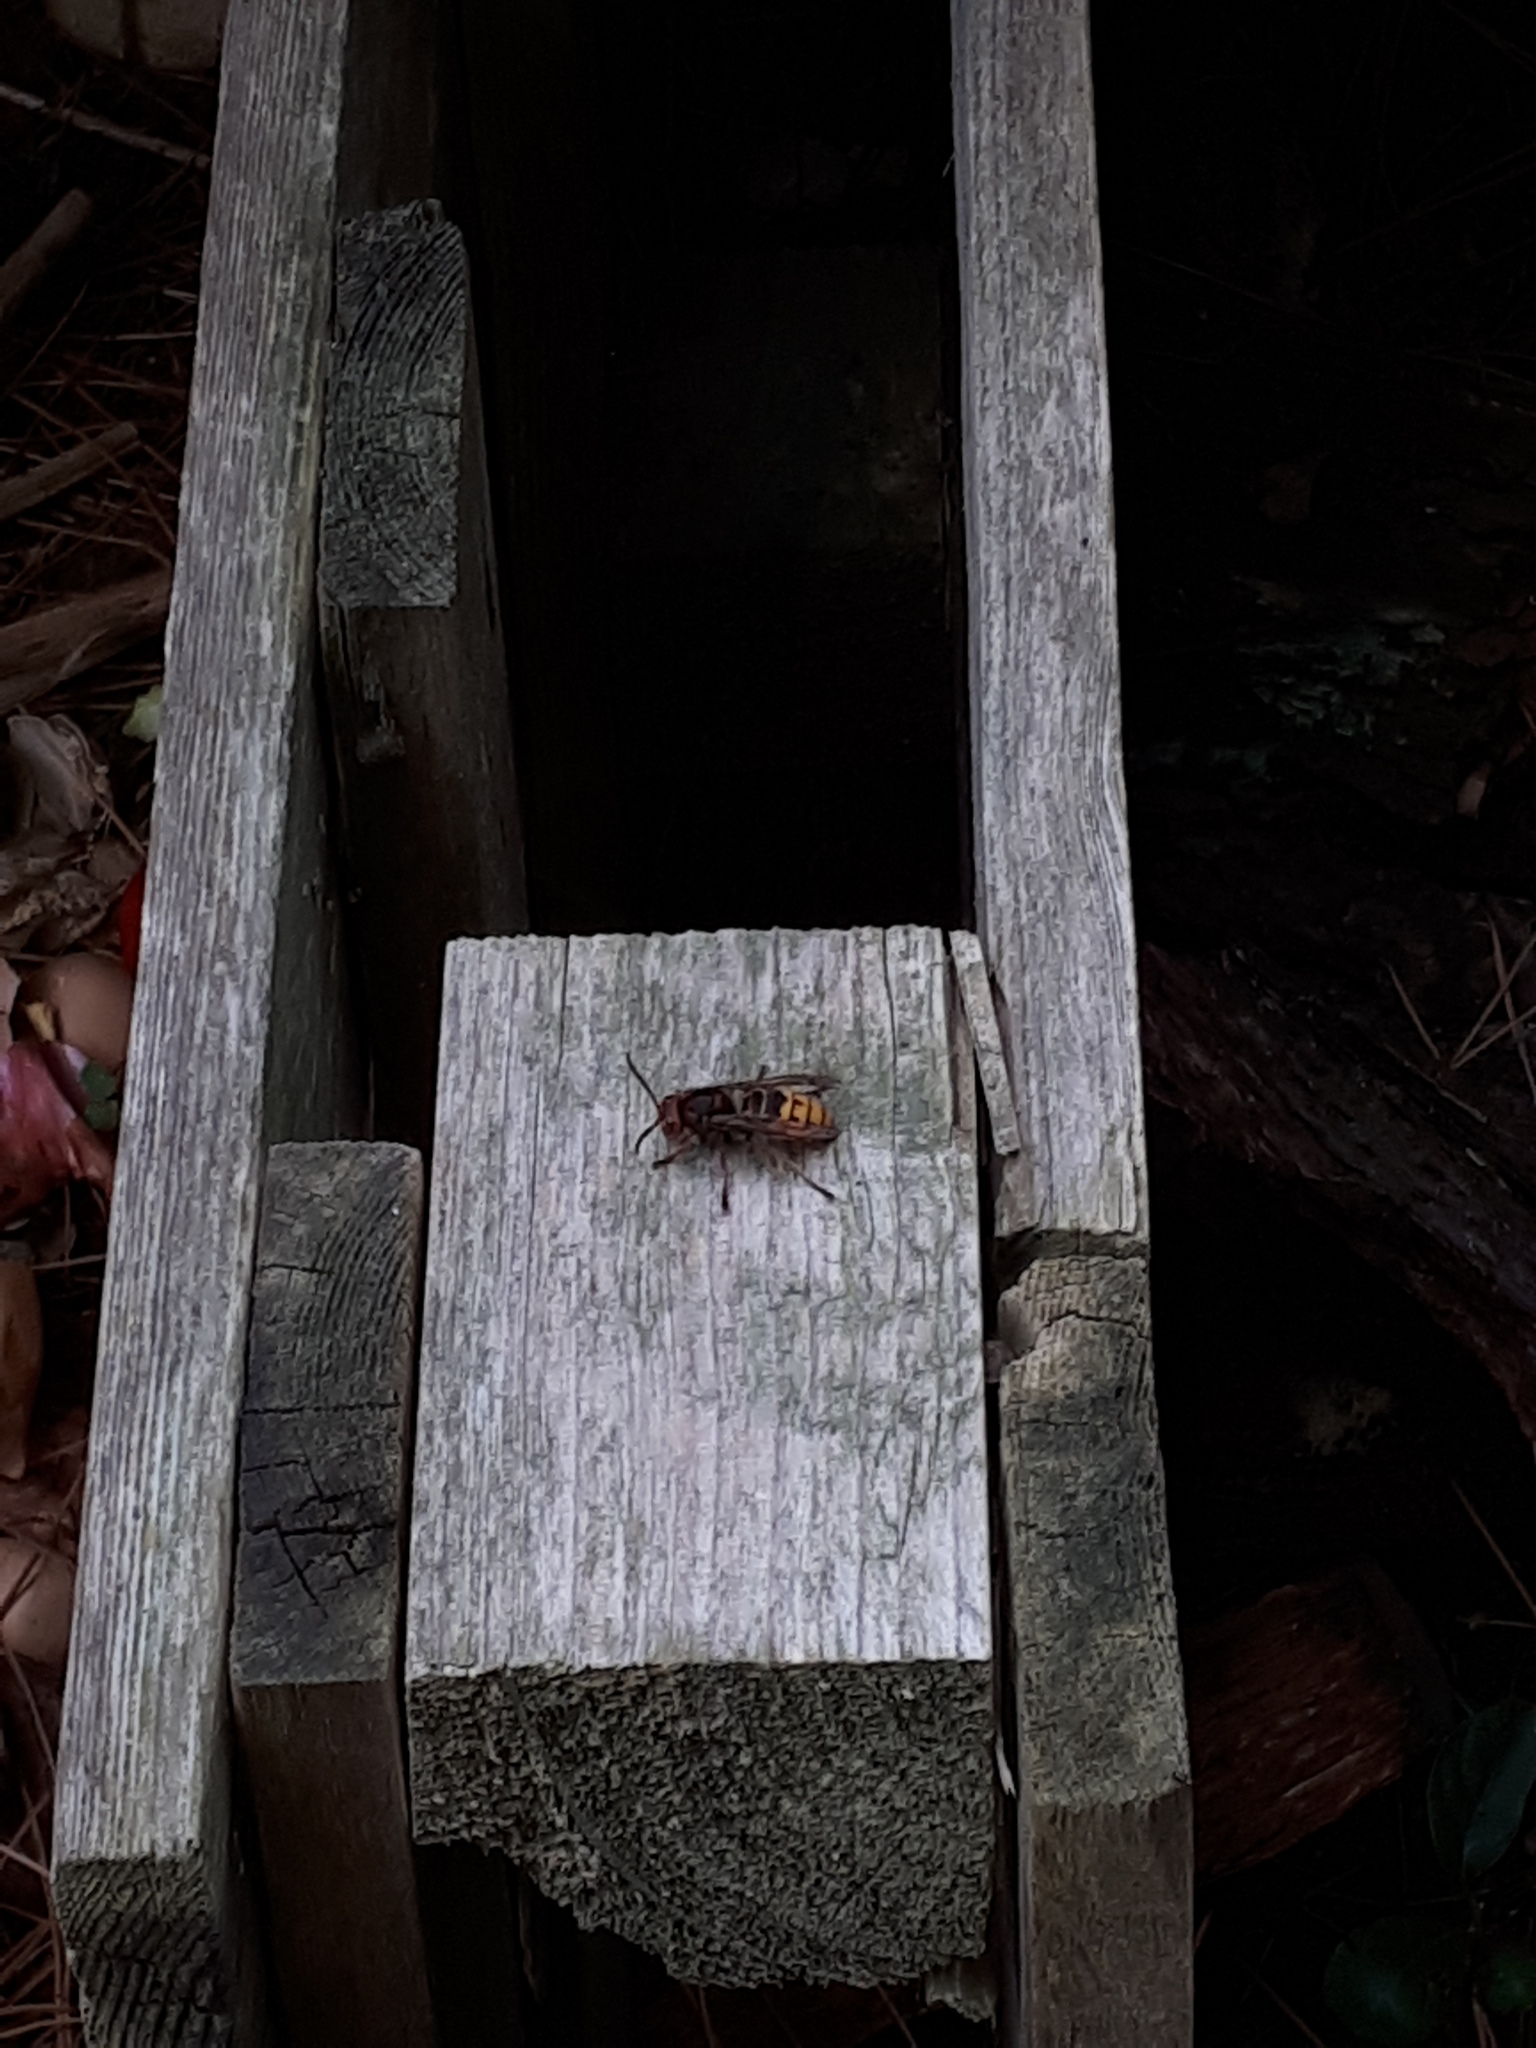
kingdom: Animalia
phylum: Arthropoda
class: Insecta
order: Hymenoptera
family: Vespidae
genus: Vespa
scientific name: Vespa crabro
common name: Hornet
